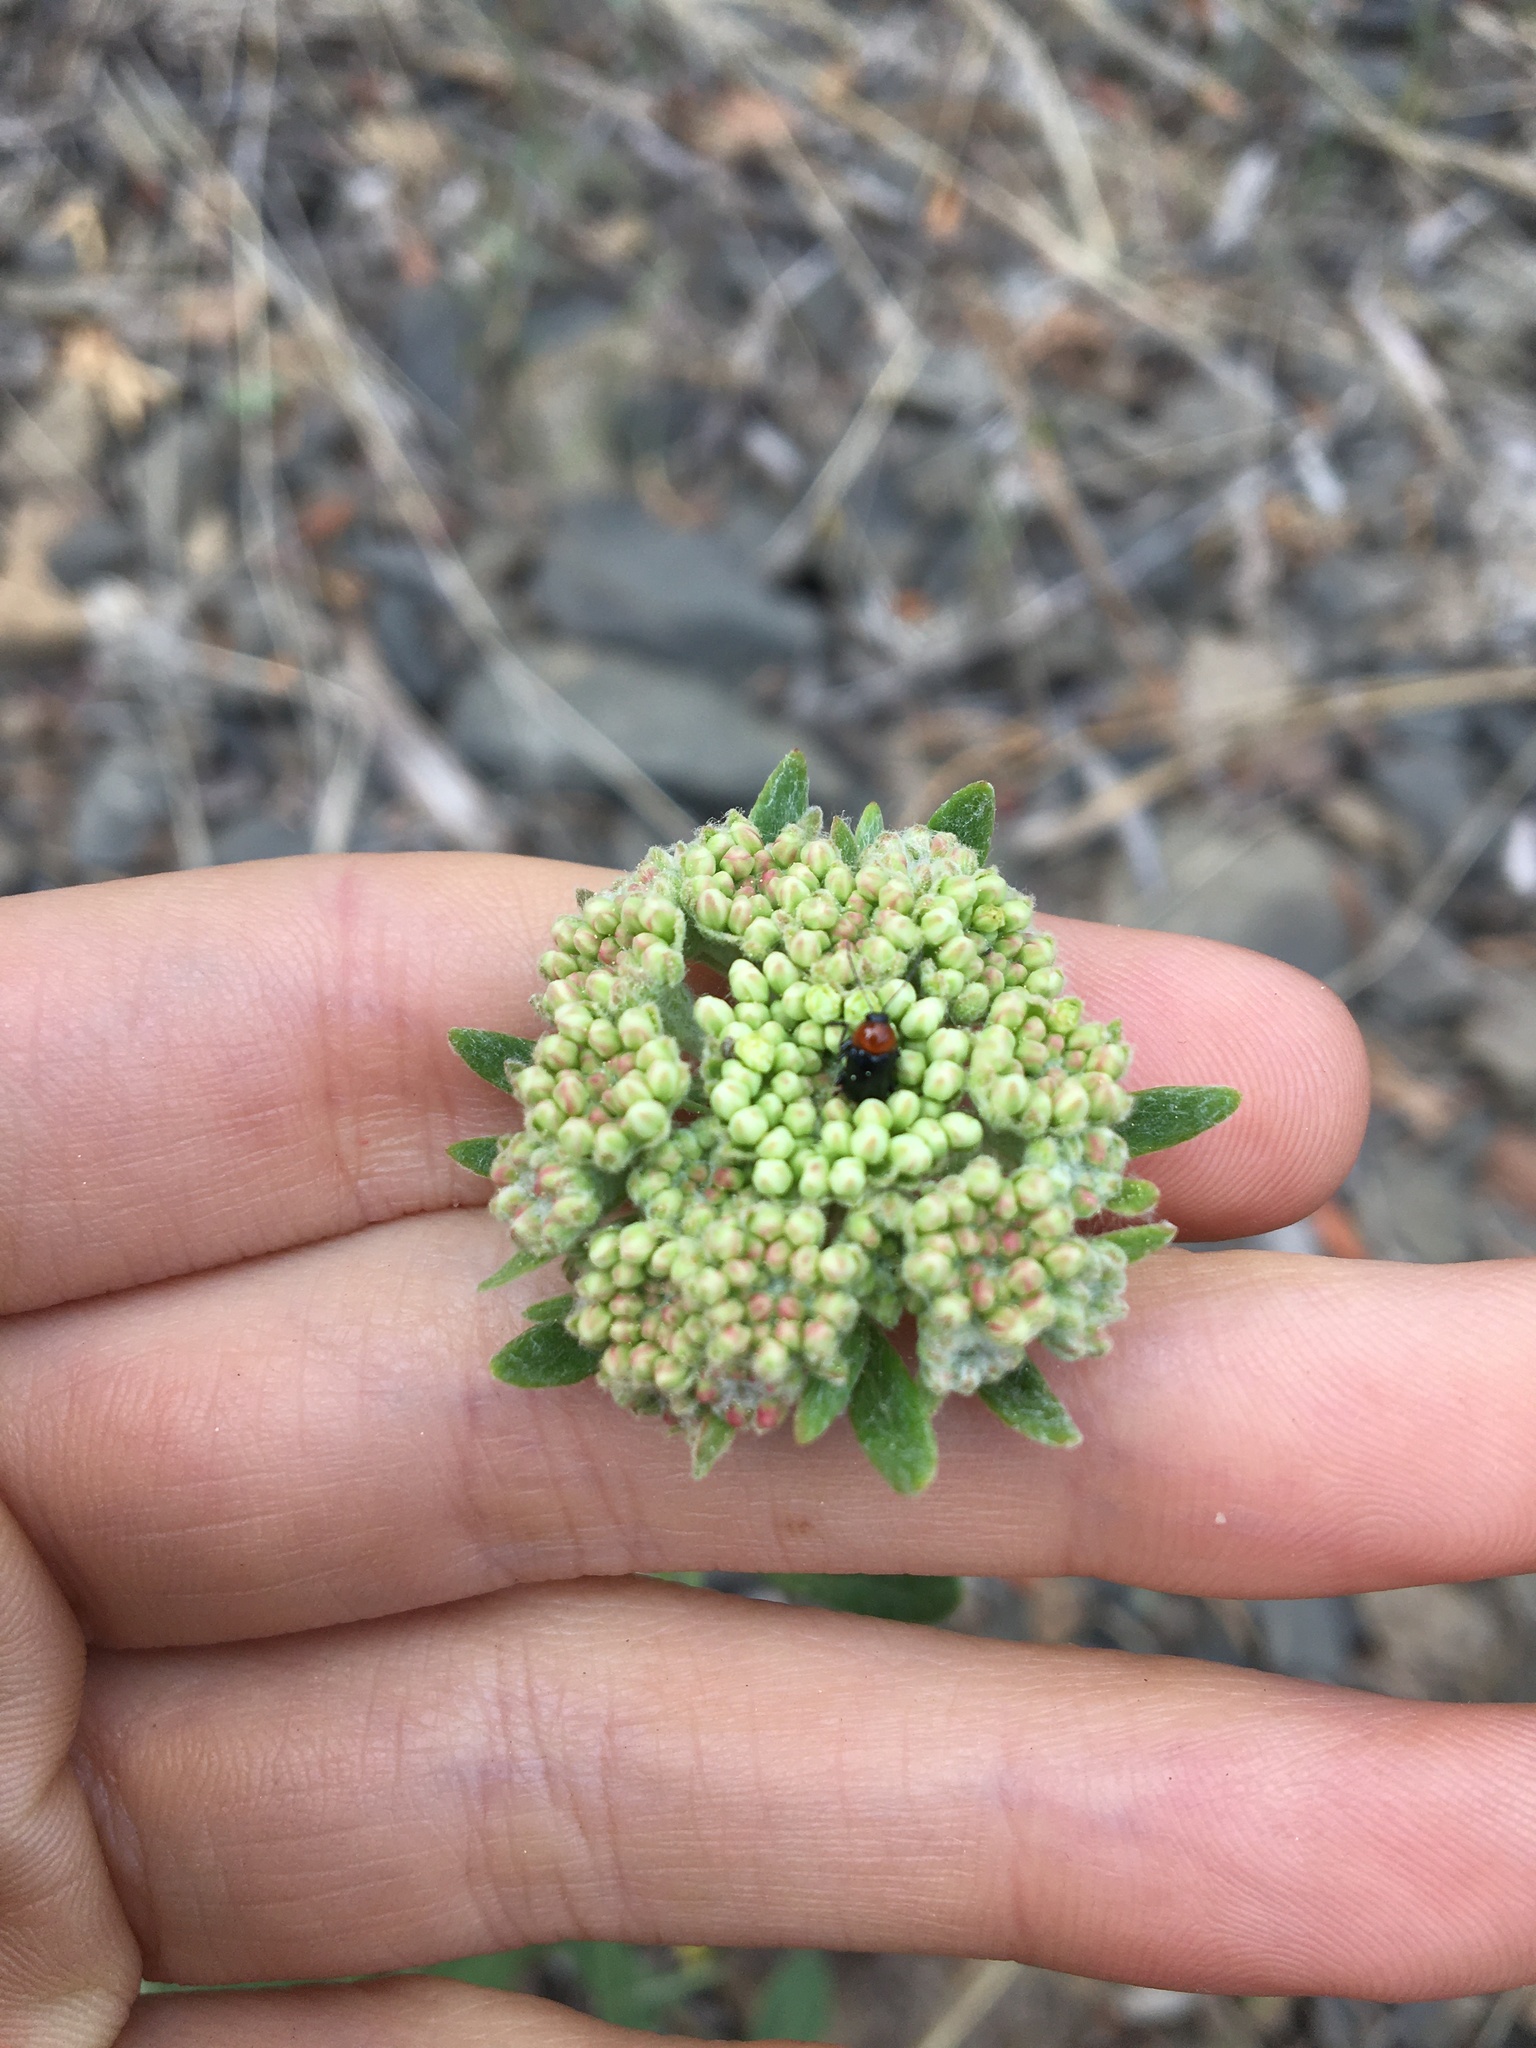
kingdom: Animalia
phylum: Arthropoda
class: Insecta
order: Coleoptera
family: Chrysomelidae
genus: Cryptocephalus
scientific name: Cryptocephalus sanguinicollis
